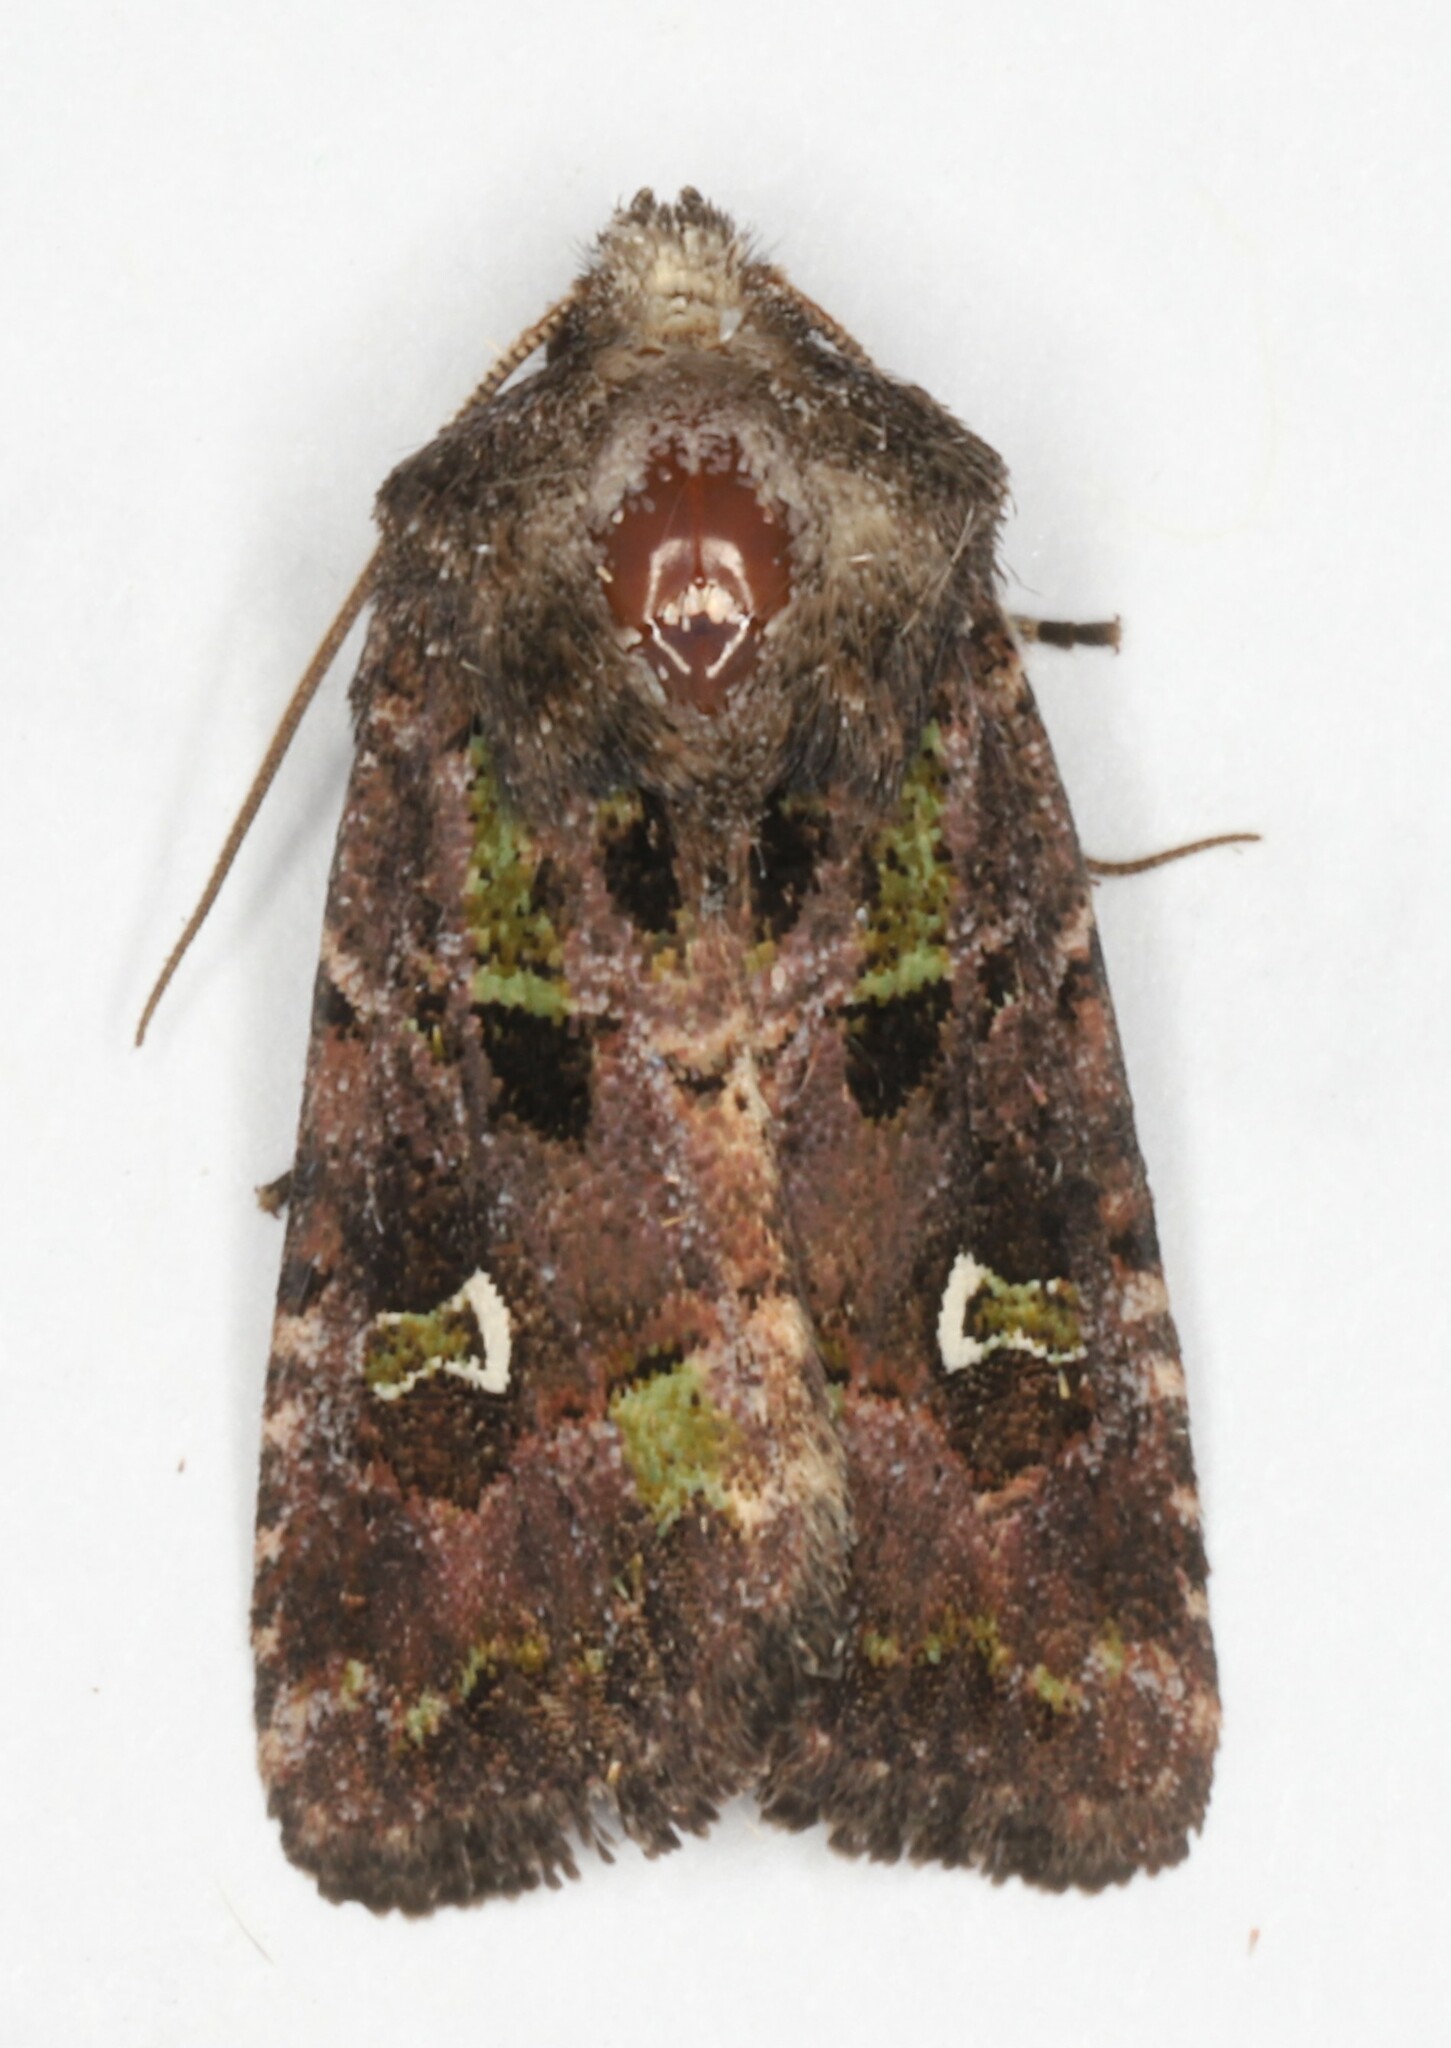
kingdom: Animalia
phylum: Arthropoda
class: Insecta
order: Lepidoptera
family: Noctuidae
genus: Lacinipolia
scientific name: Lacinipolia renigera
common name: Kidney-spotted minor
